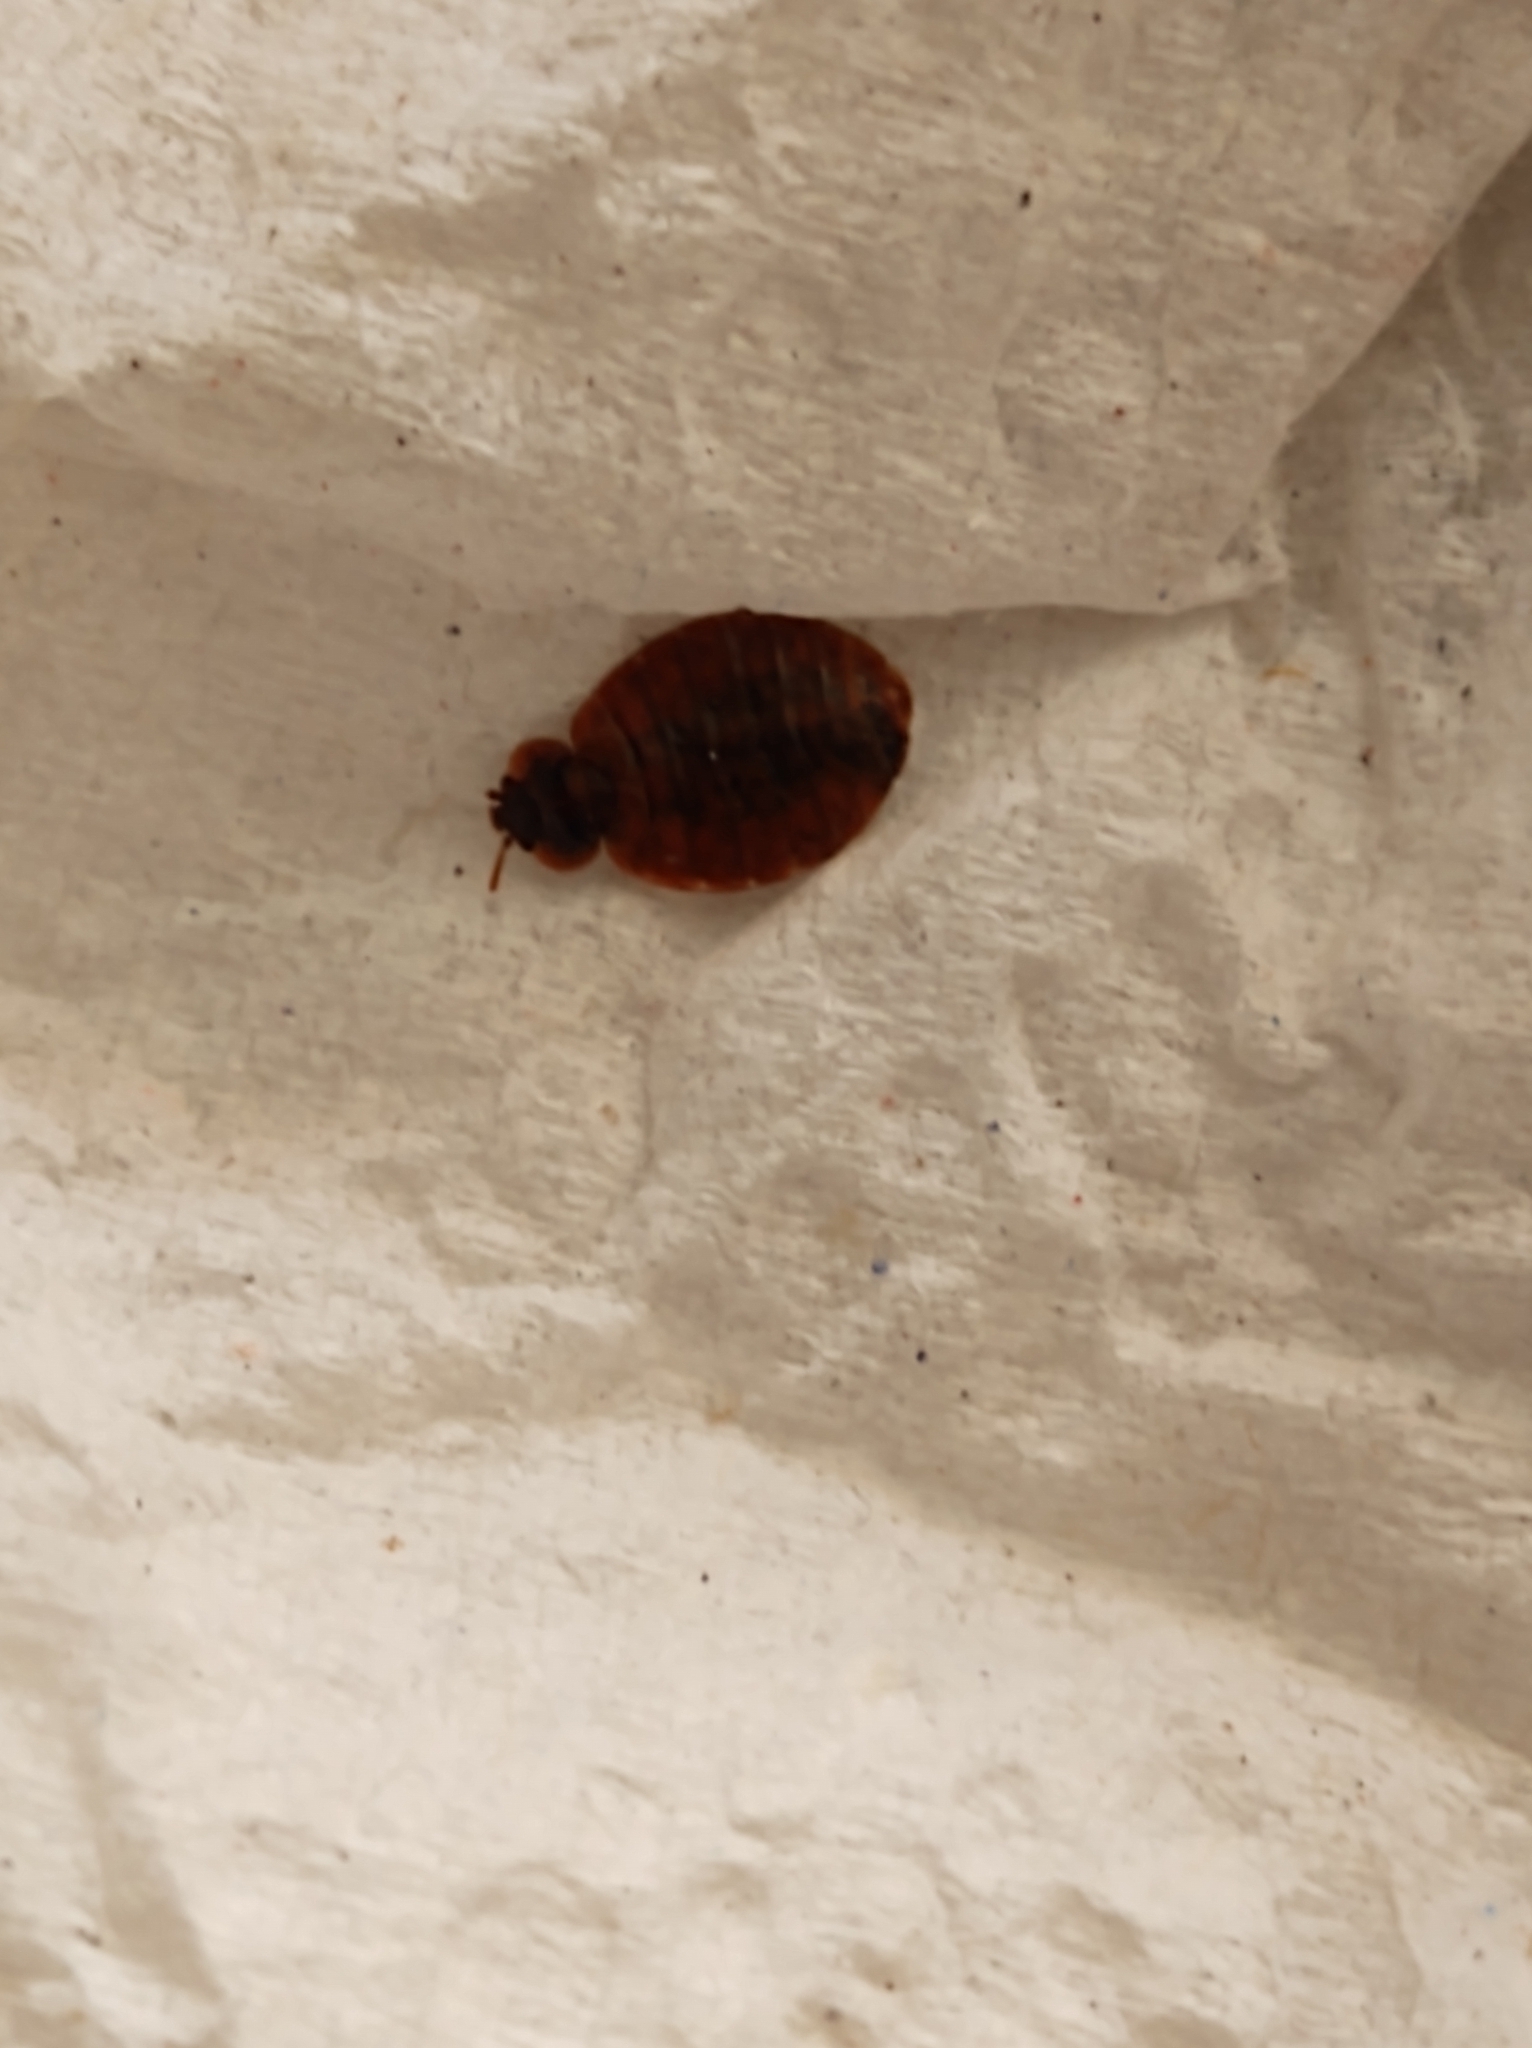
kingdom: Animalia
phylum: Arthropoda
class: Insecta
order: Hemiptera
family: Cimicidae
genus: Cimex
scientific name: Cimex lectularius
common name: Bed bug
